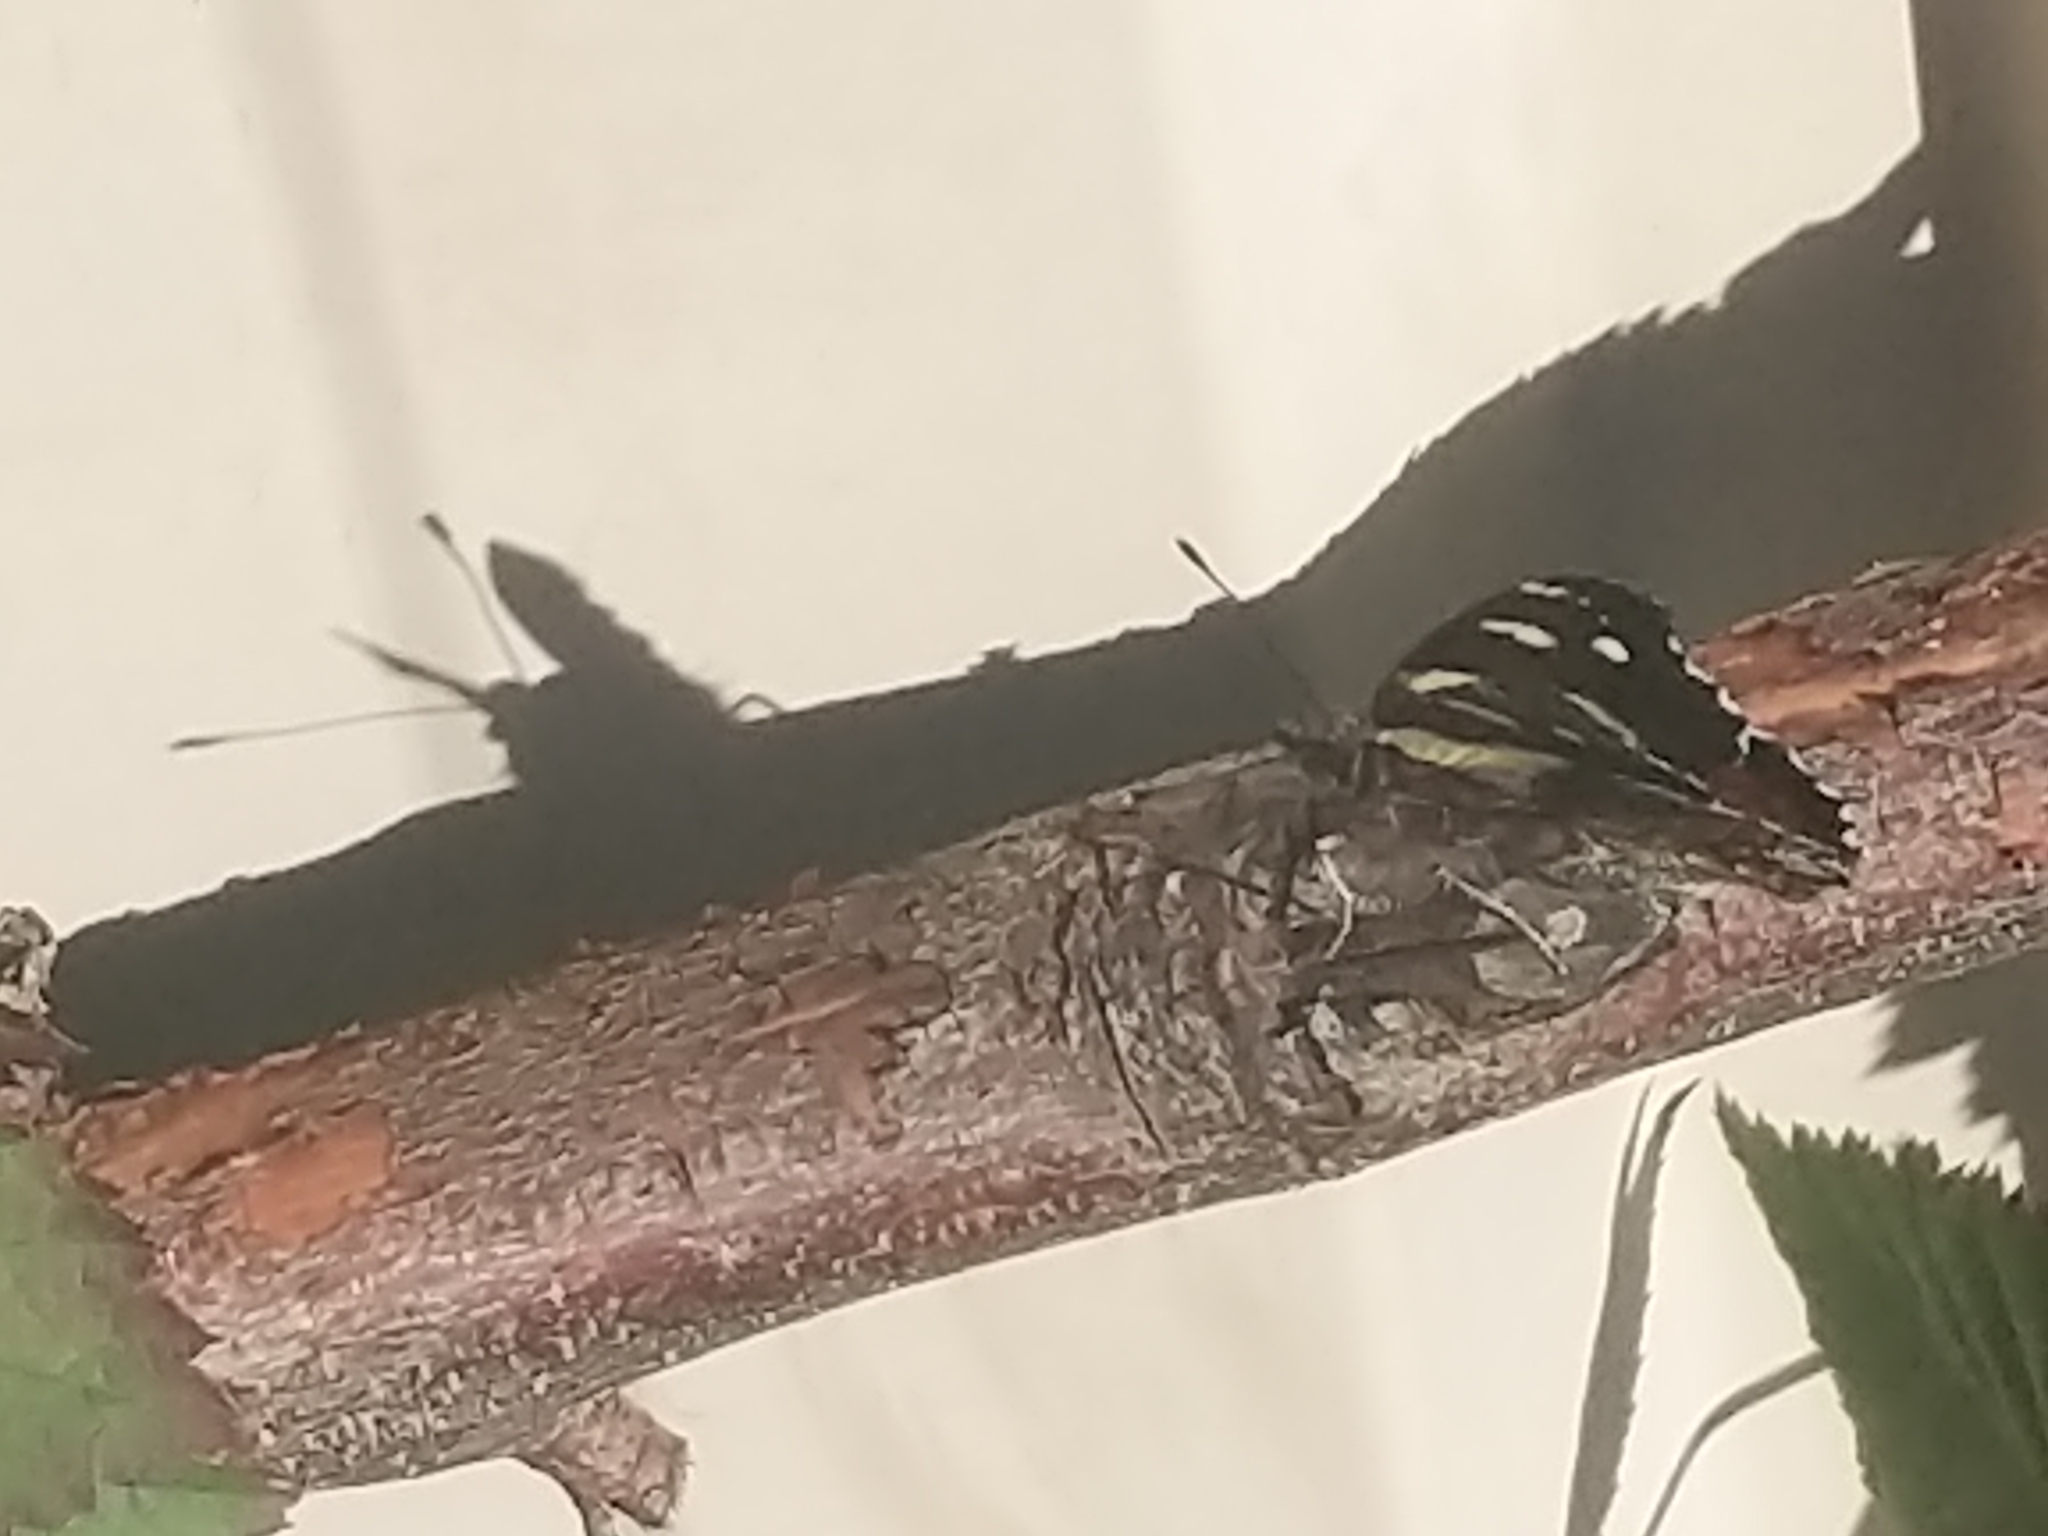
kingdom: Animalia
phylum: Arthropoda
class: Insecta
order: Lepidoptera
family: Nymphalidae
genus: Vanessa
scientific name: Vanessa itea
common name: Yellow admiral
